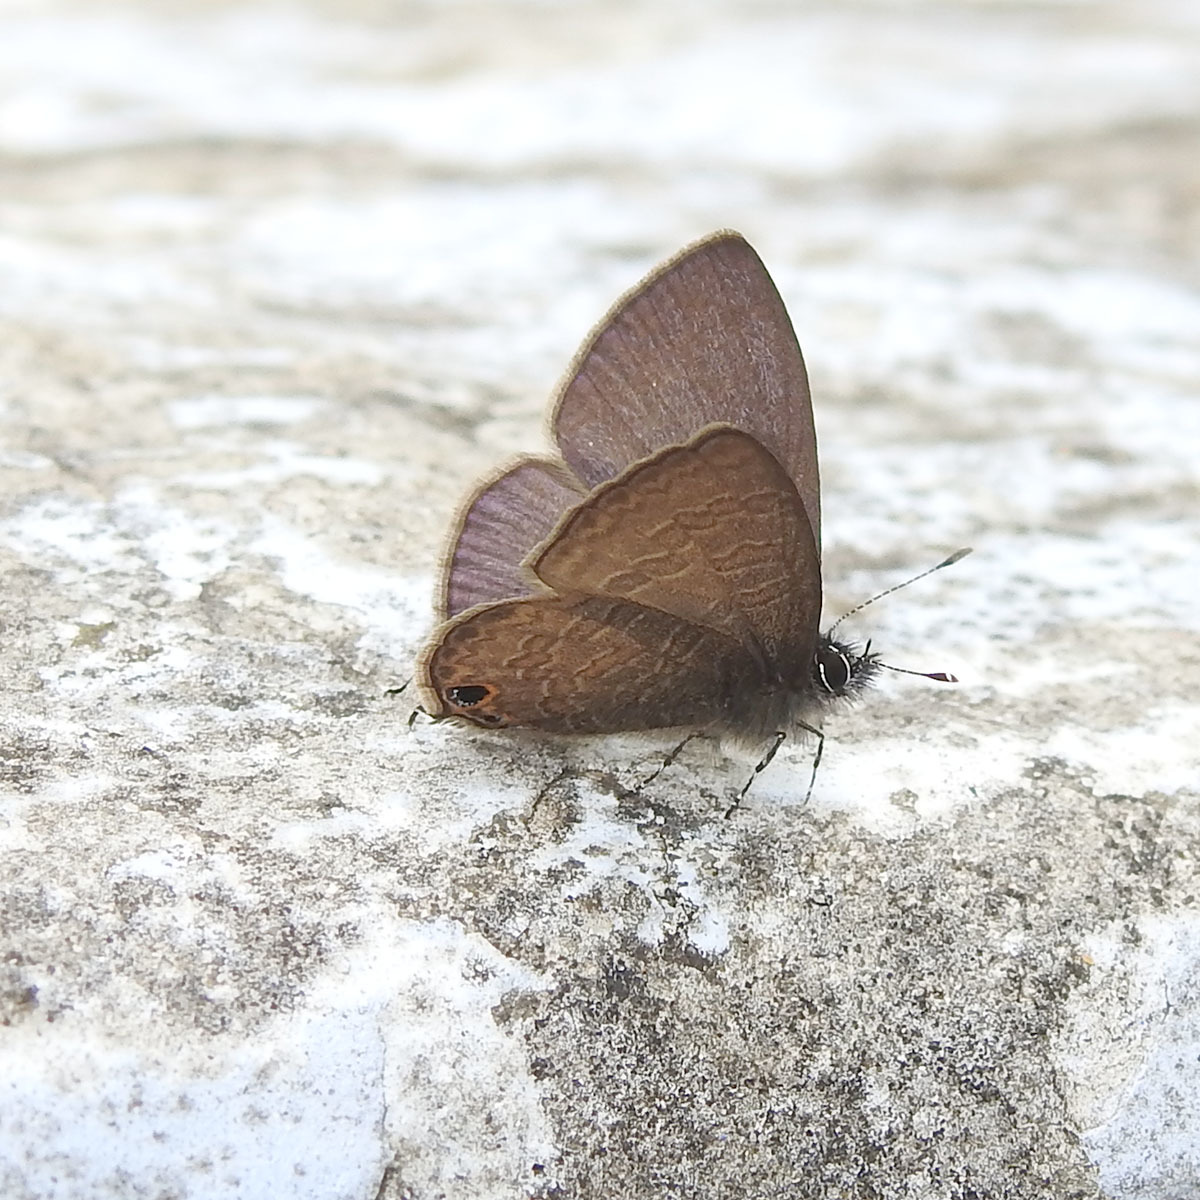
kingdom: Animalia
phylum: Arthropoda
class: Insecta
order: Lepidoptera
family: Lycaenidae
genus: Prosotas
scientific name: Prosotas nora
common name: Common line blue
